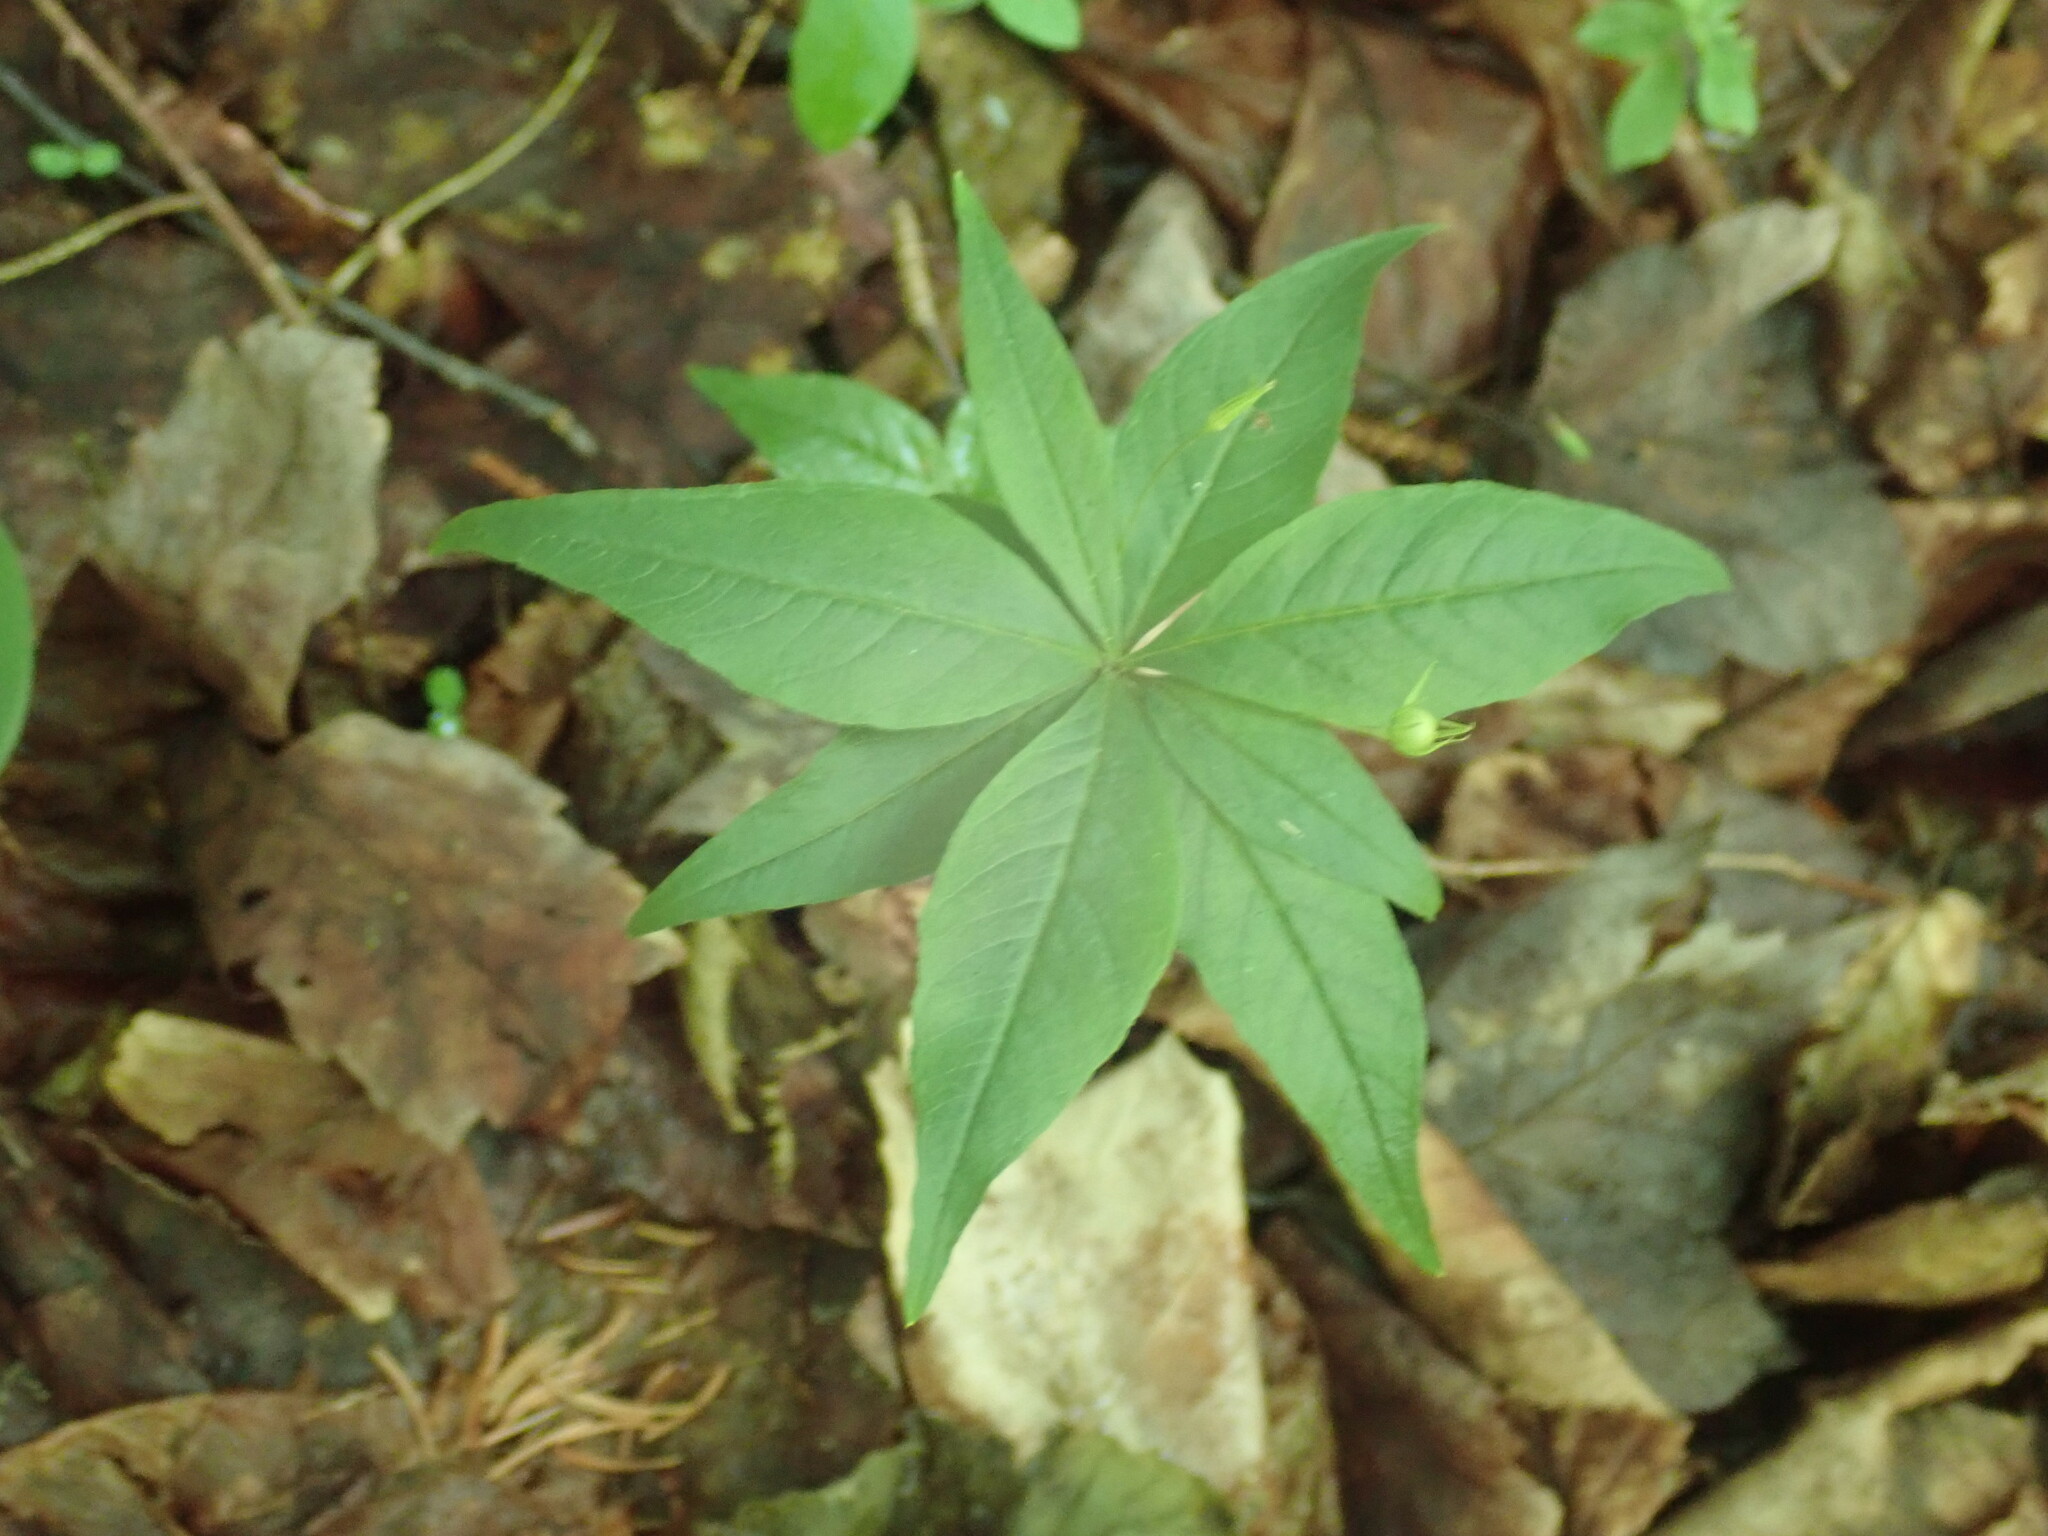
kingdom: Plantae
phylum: Tracheophyta
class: Magnoliopsida
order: Ericales
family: Primulaceae
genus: Lysimachia
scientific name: Lysimachia borealis
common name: American starflower
